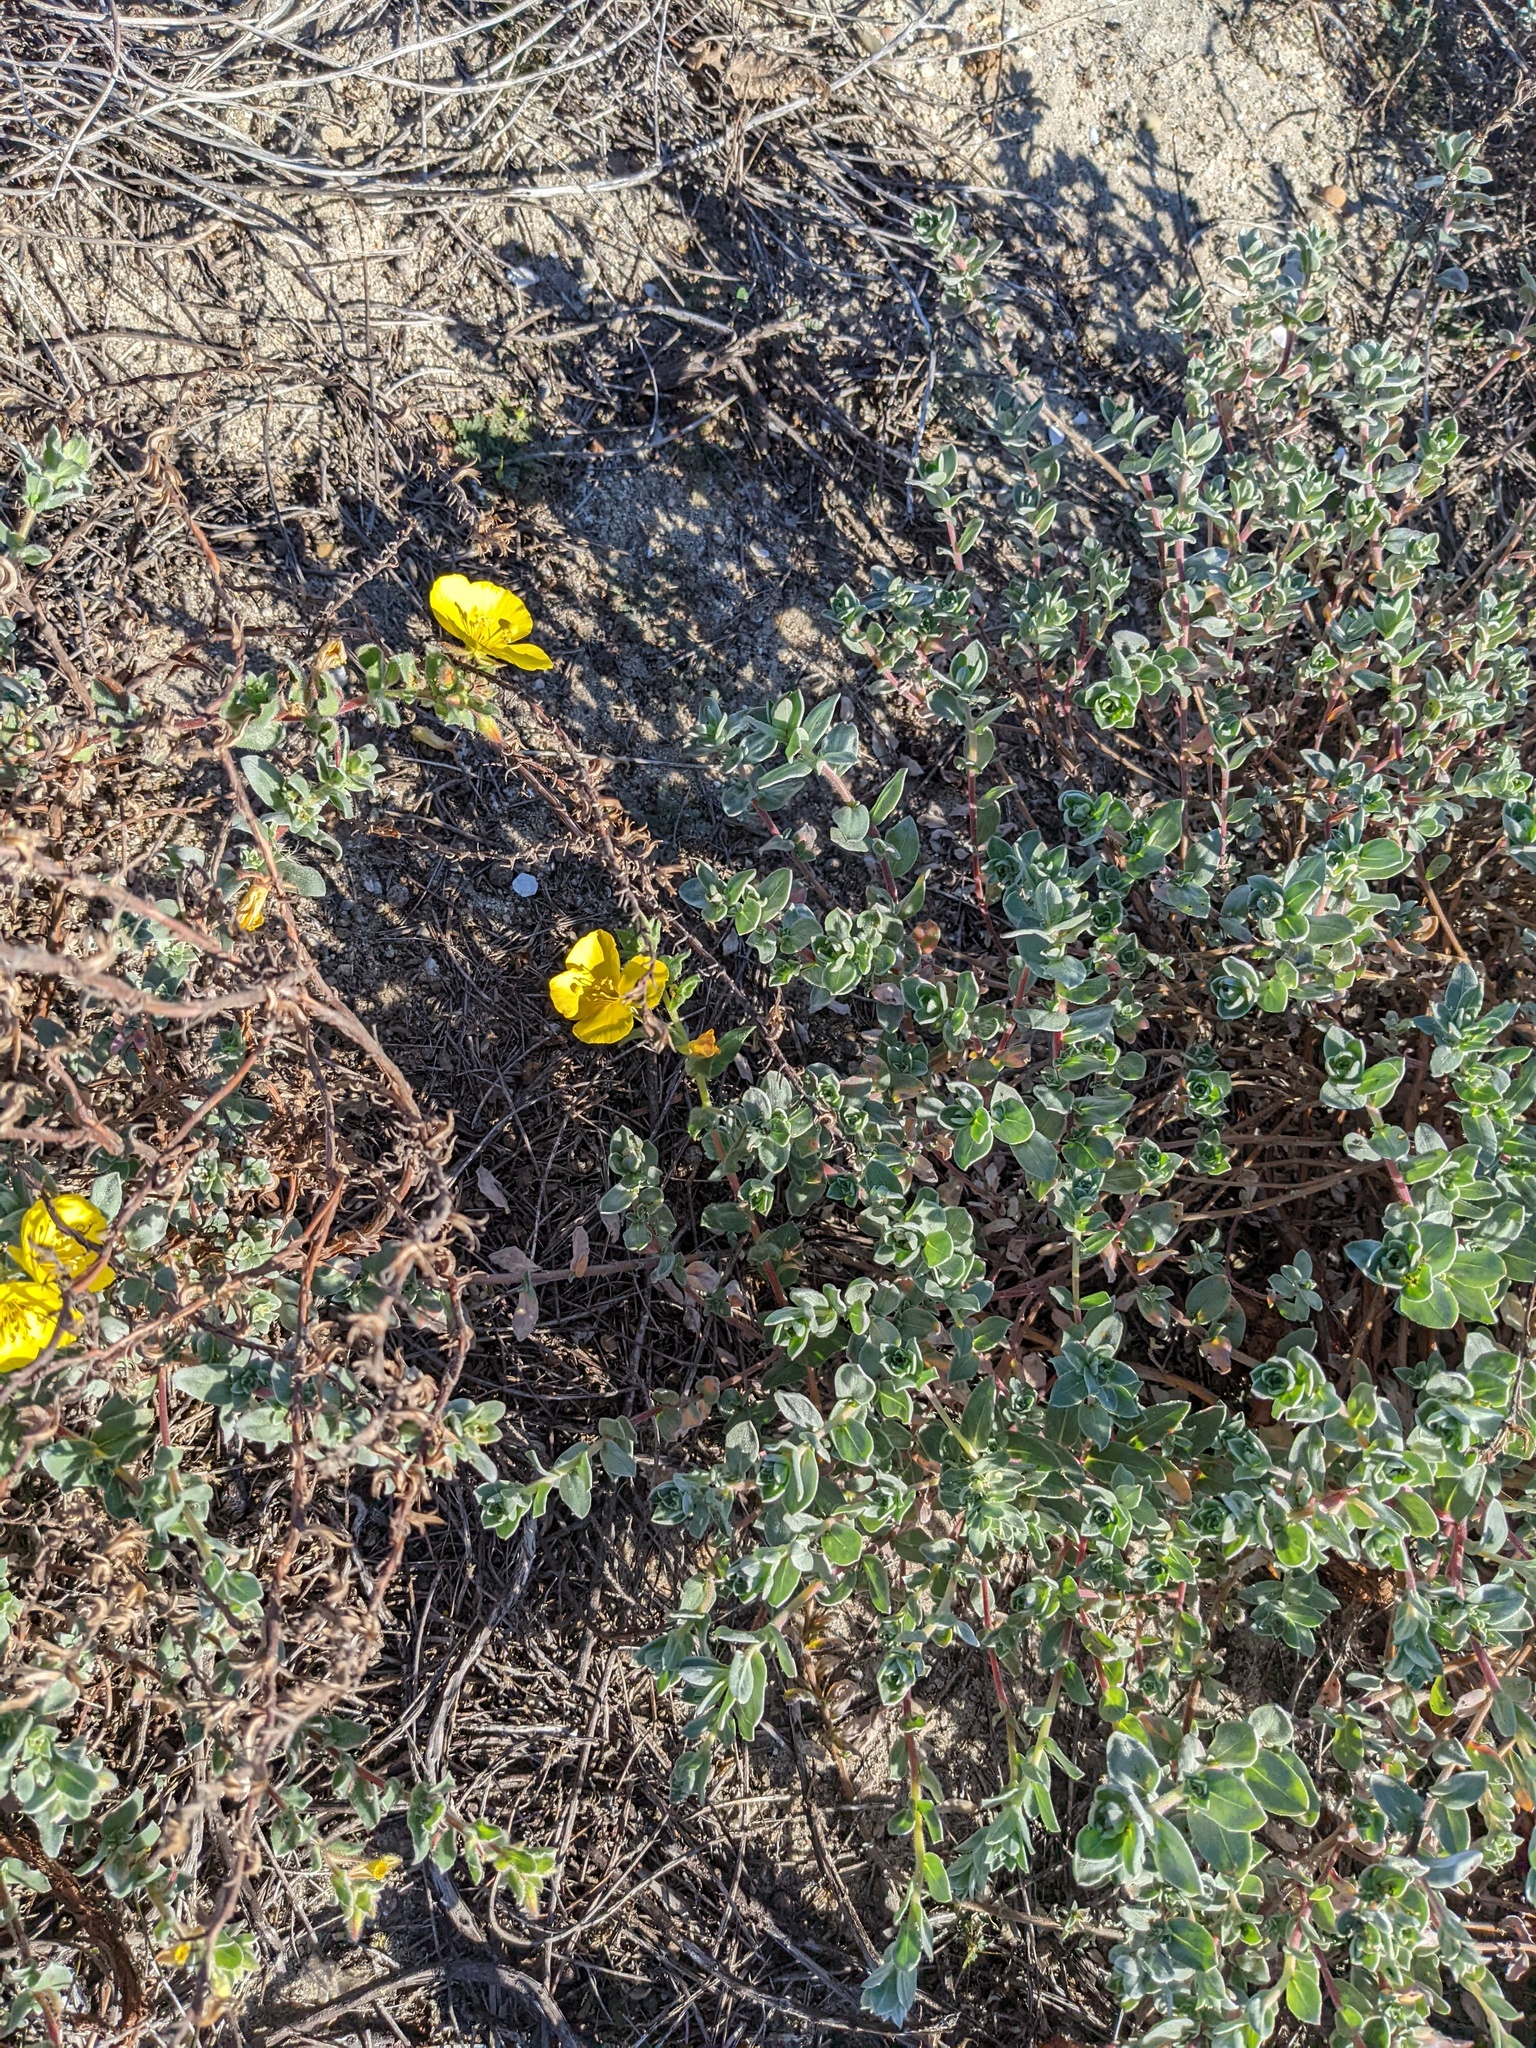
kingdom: Plantae
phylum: Tracheophyta
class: Magnoliopsida
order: Myrtales
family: Onagraceae
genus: Camissoniopsis
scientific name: Camissoniopsis cheiranthifolia
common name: Beach suncup
